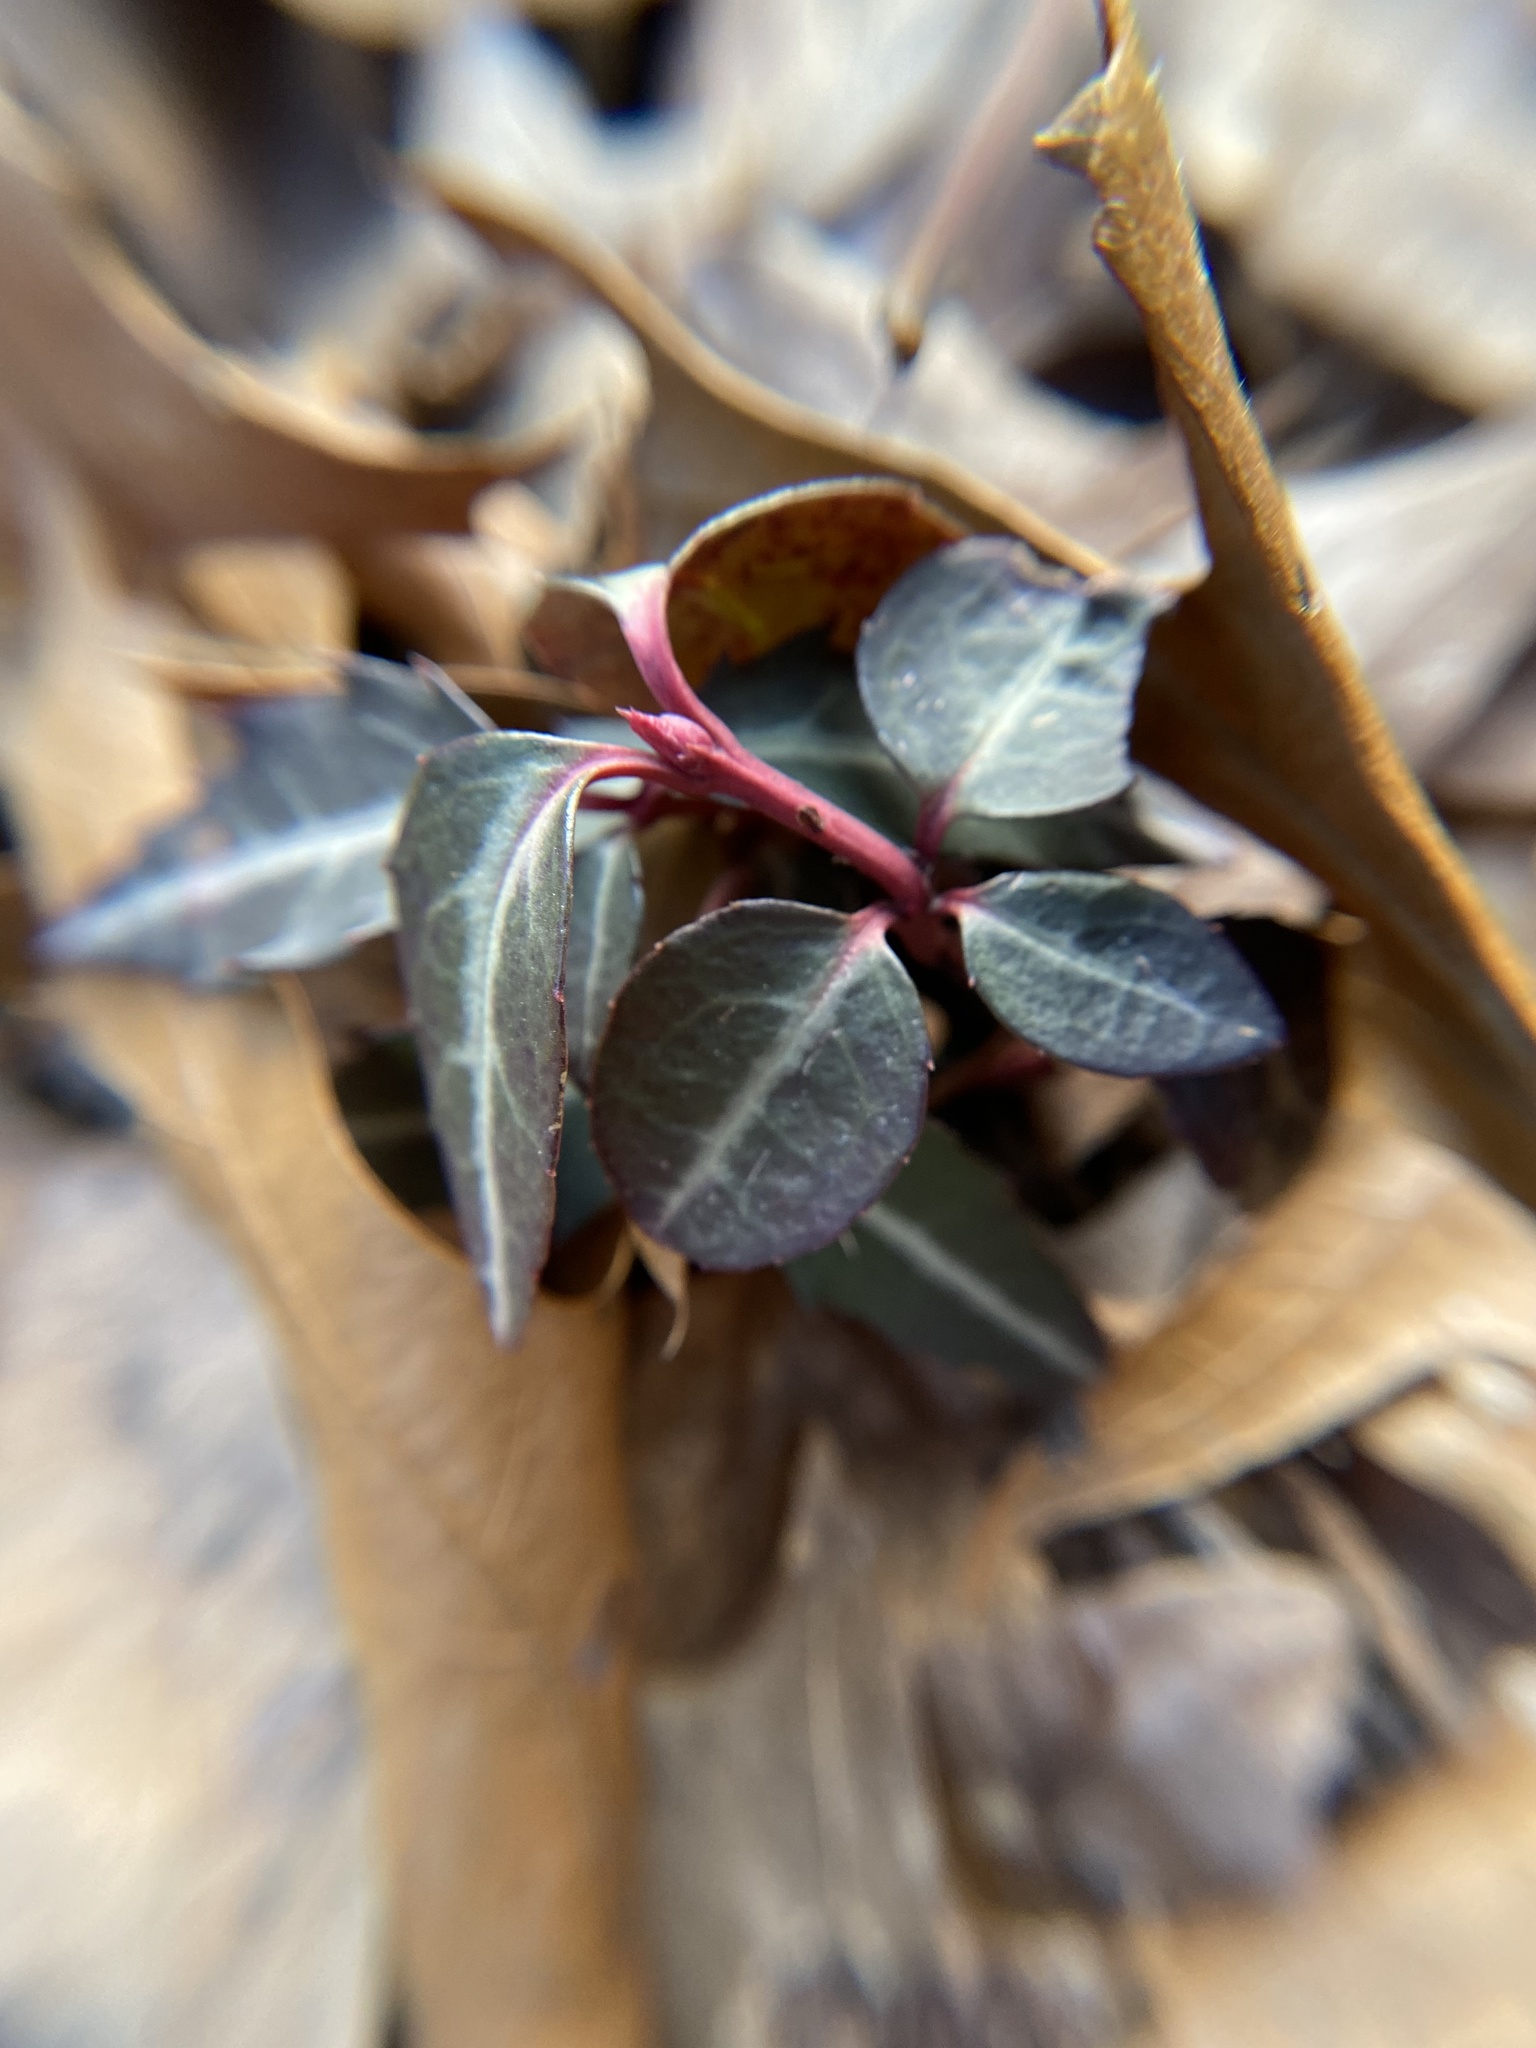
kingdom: Plantae
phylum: Tracheophyta
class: Magnoliopsida
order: Ericales
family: Ericaceae
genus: Chimaphila
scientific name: Chimaphila maculata
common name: Spotted pipsissewa
